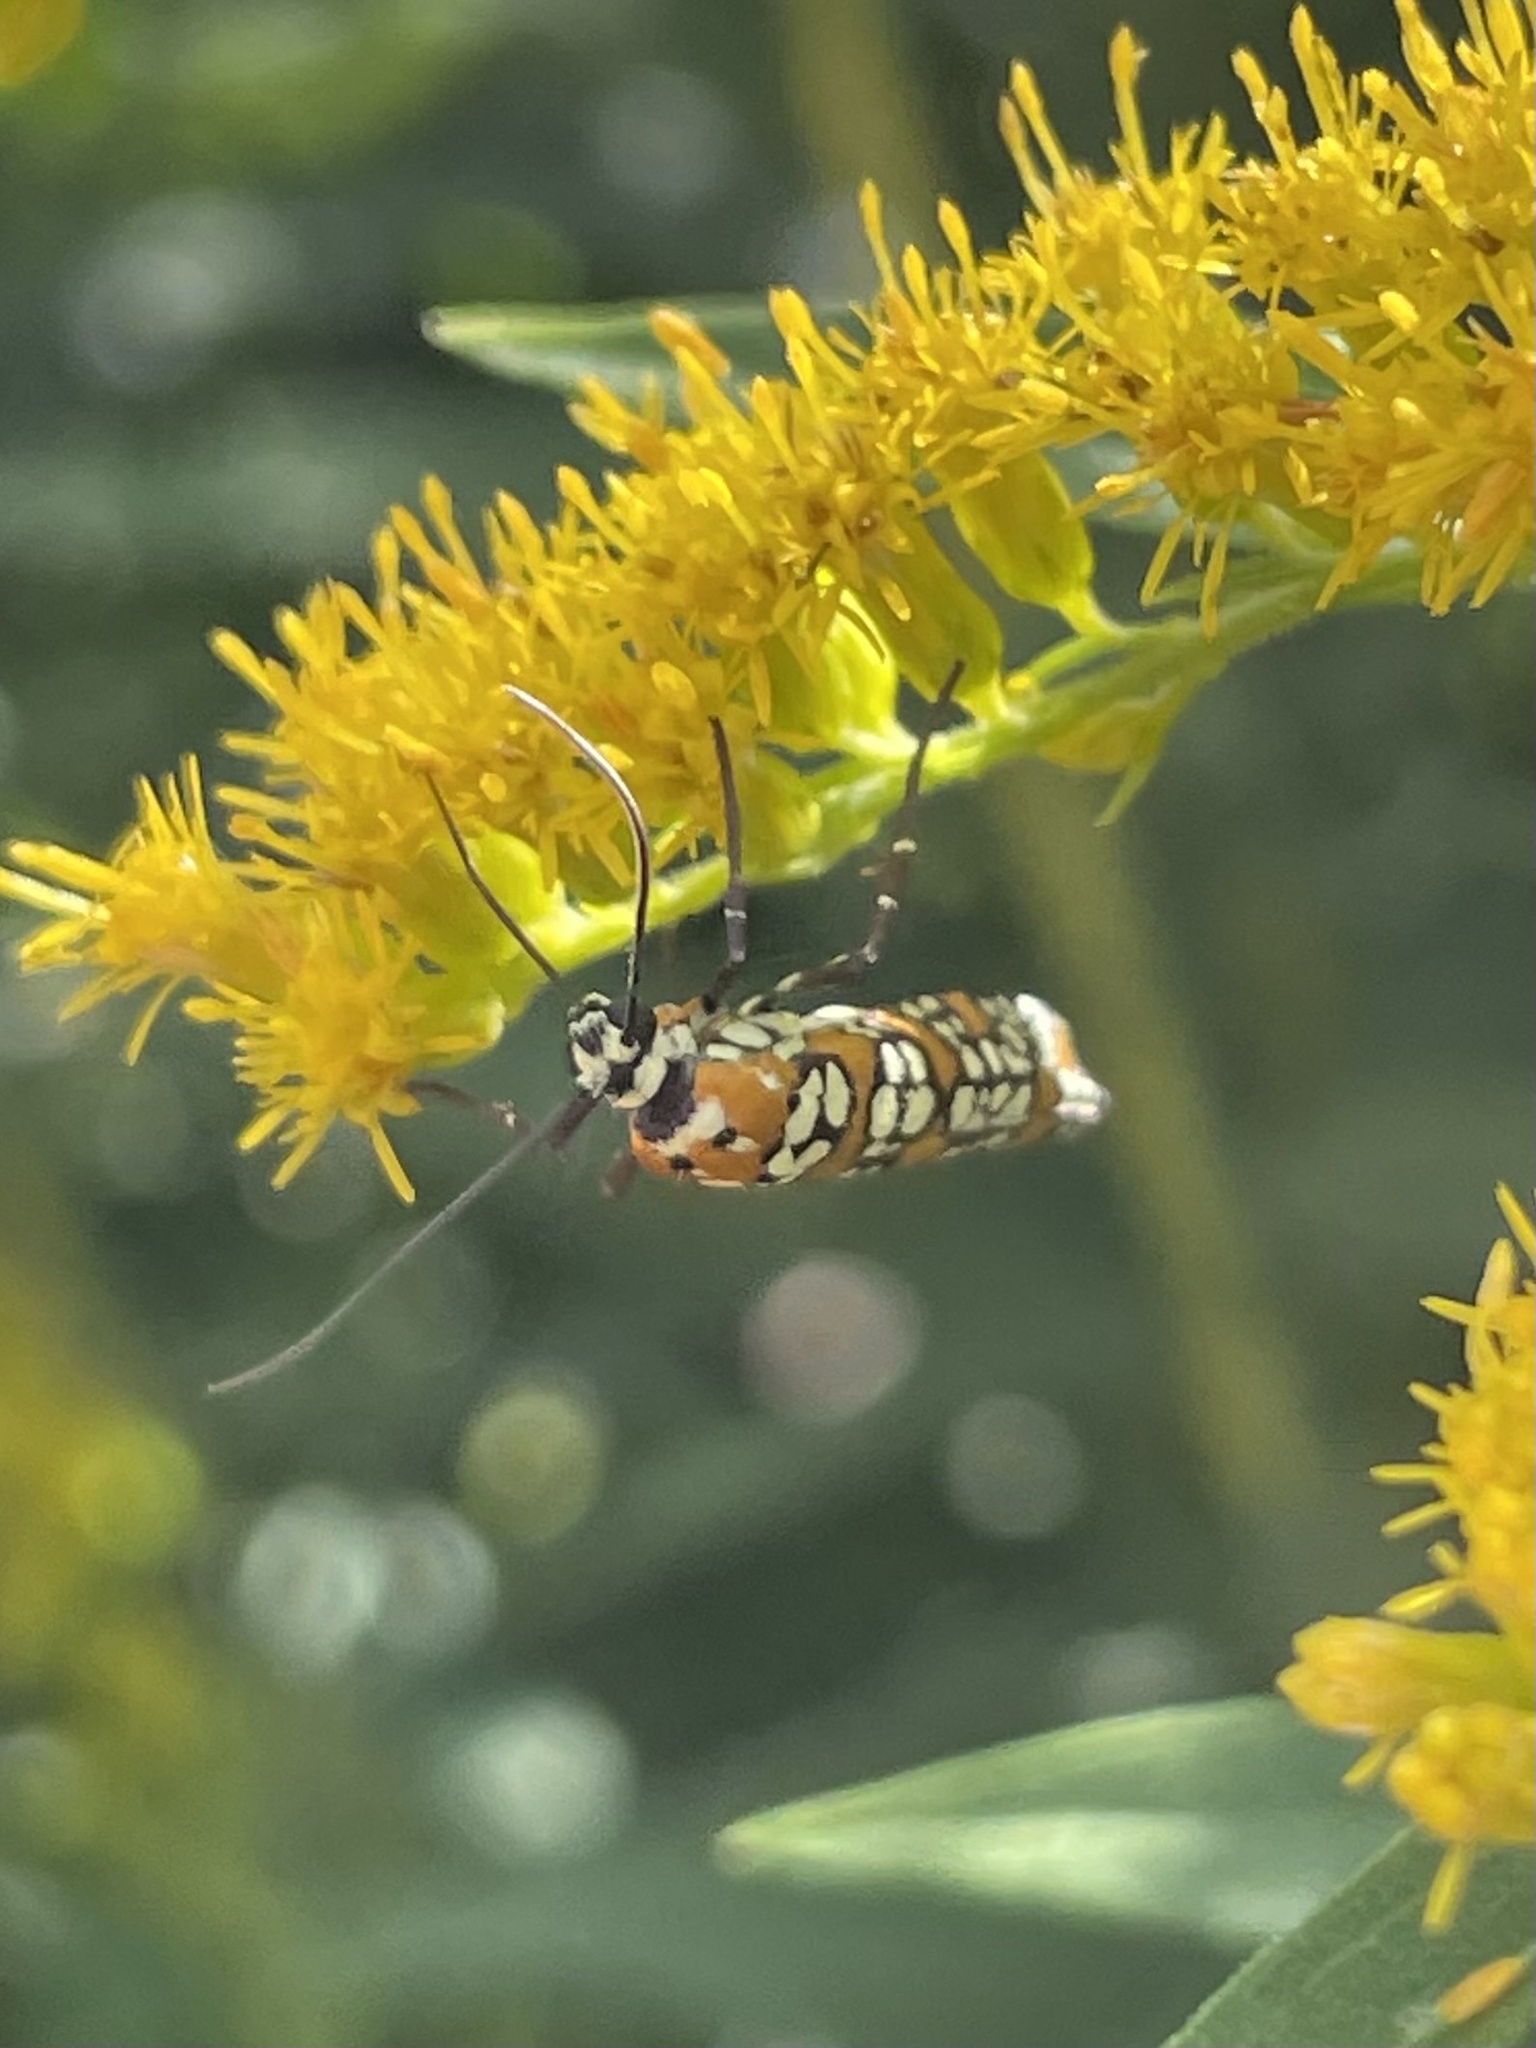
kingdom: Animalia
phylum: Arthropoda
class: Insecta
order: Lepidoptera
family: Attevidae
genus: Atteva
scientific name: Atteva punctella
